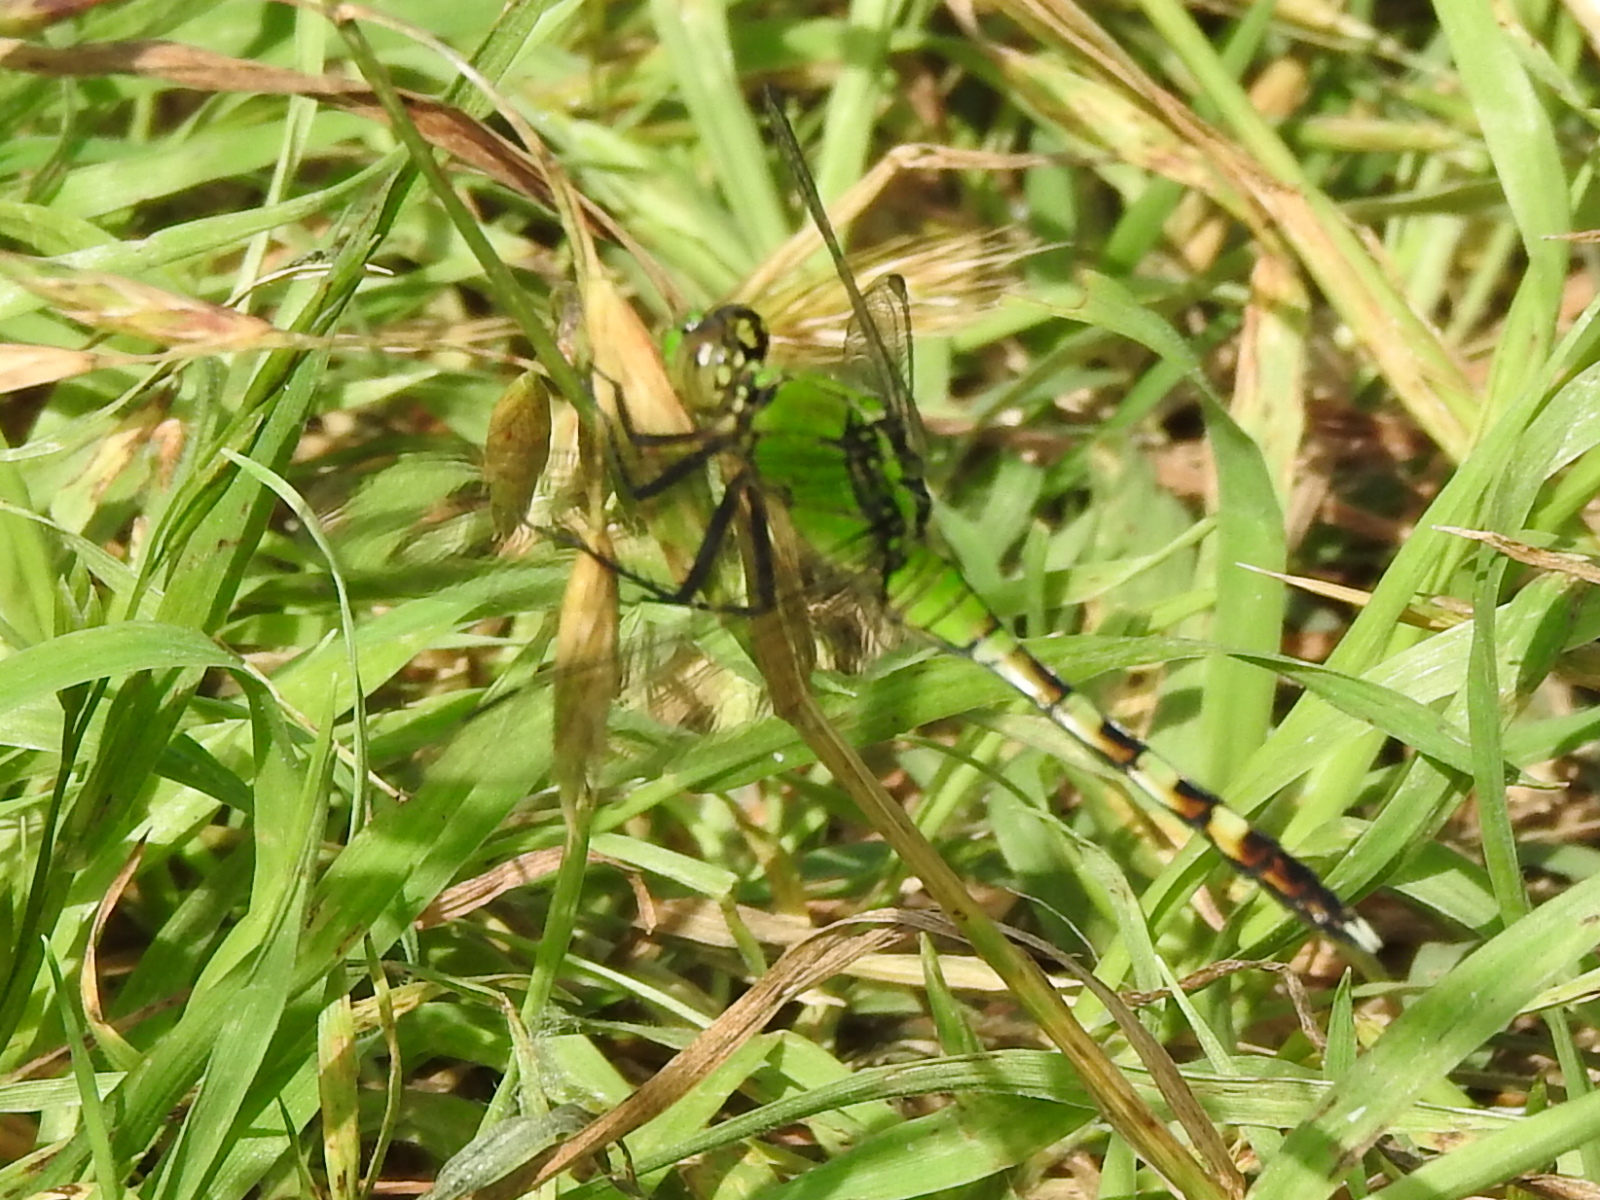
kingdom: Animalia
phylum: Arthropoda
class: Insecta
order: Odonata
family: Libellulidae
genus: Erythemis
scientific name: Erythemis simplicicollis
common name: Eastern pondhawk
